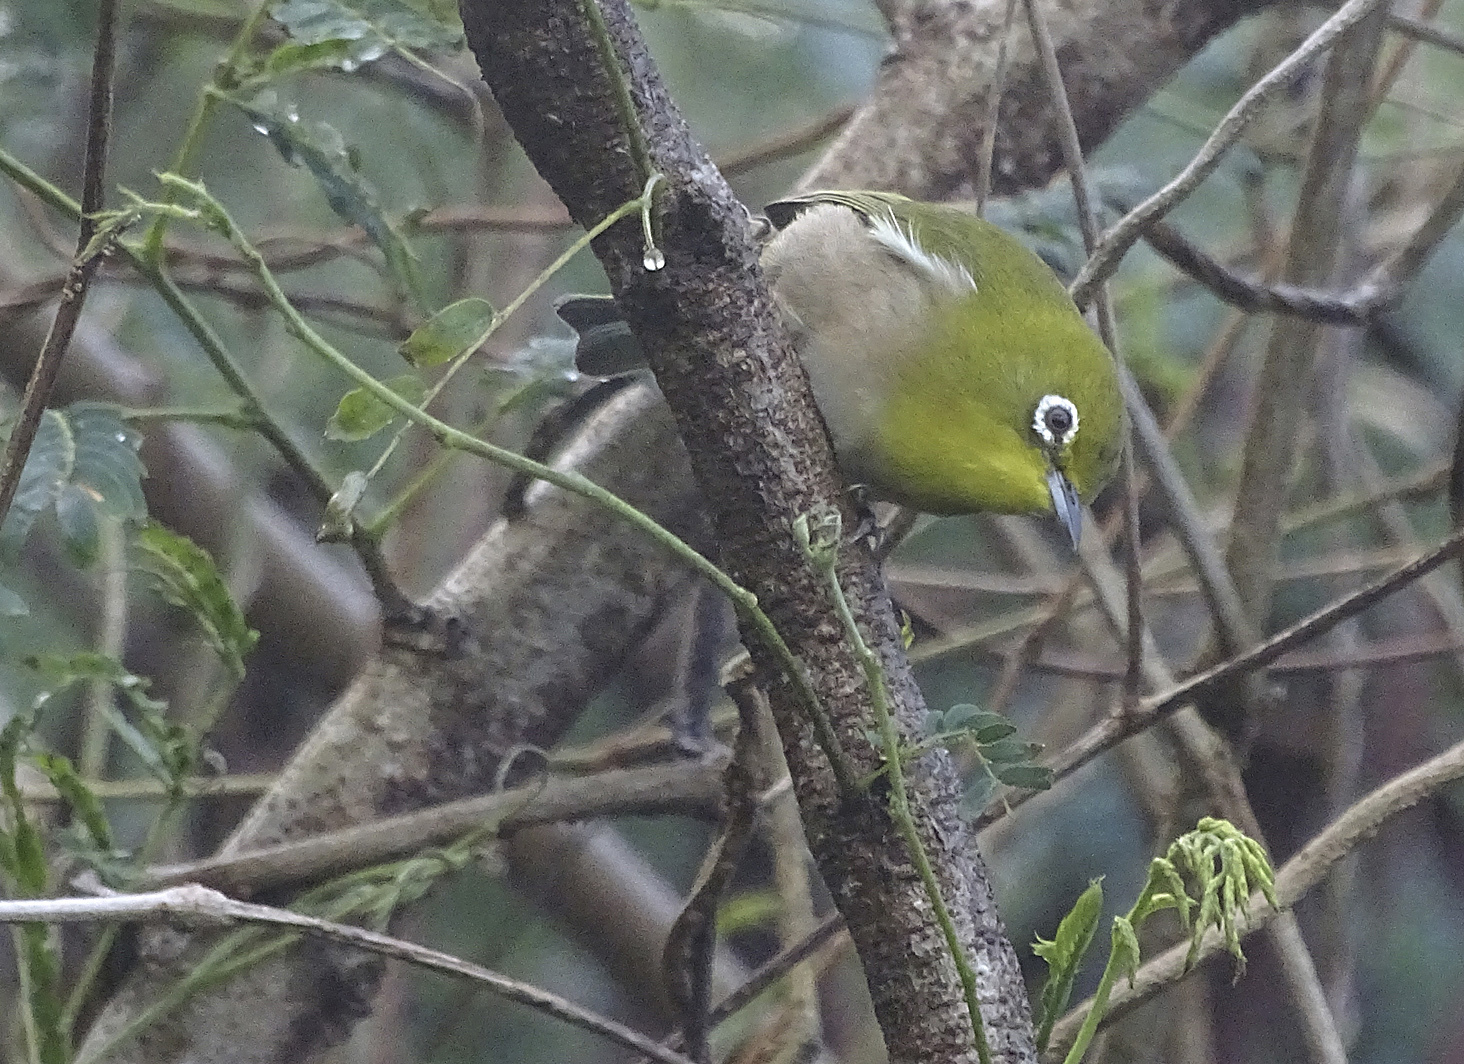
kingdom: Animalia
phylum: Chordata
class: Aves
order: Passeriformes
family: Zosteropidae
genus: Zosterops
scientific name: Zosterops japonicus
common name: Japanese white-eye
